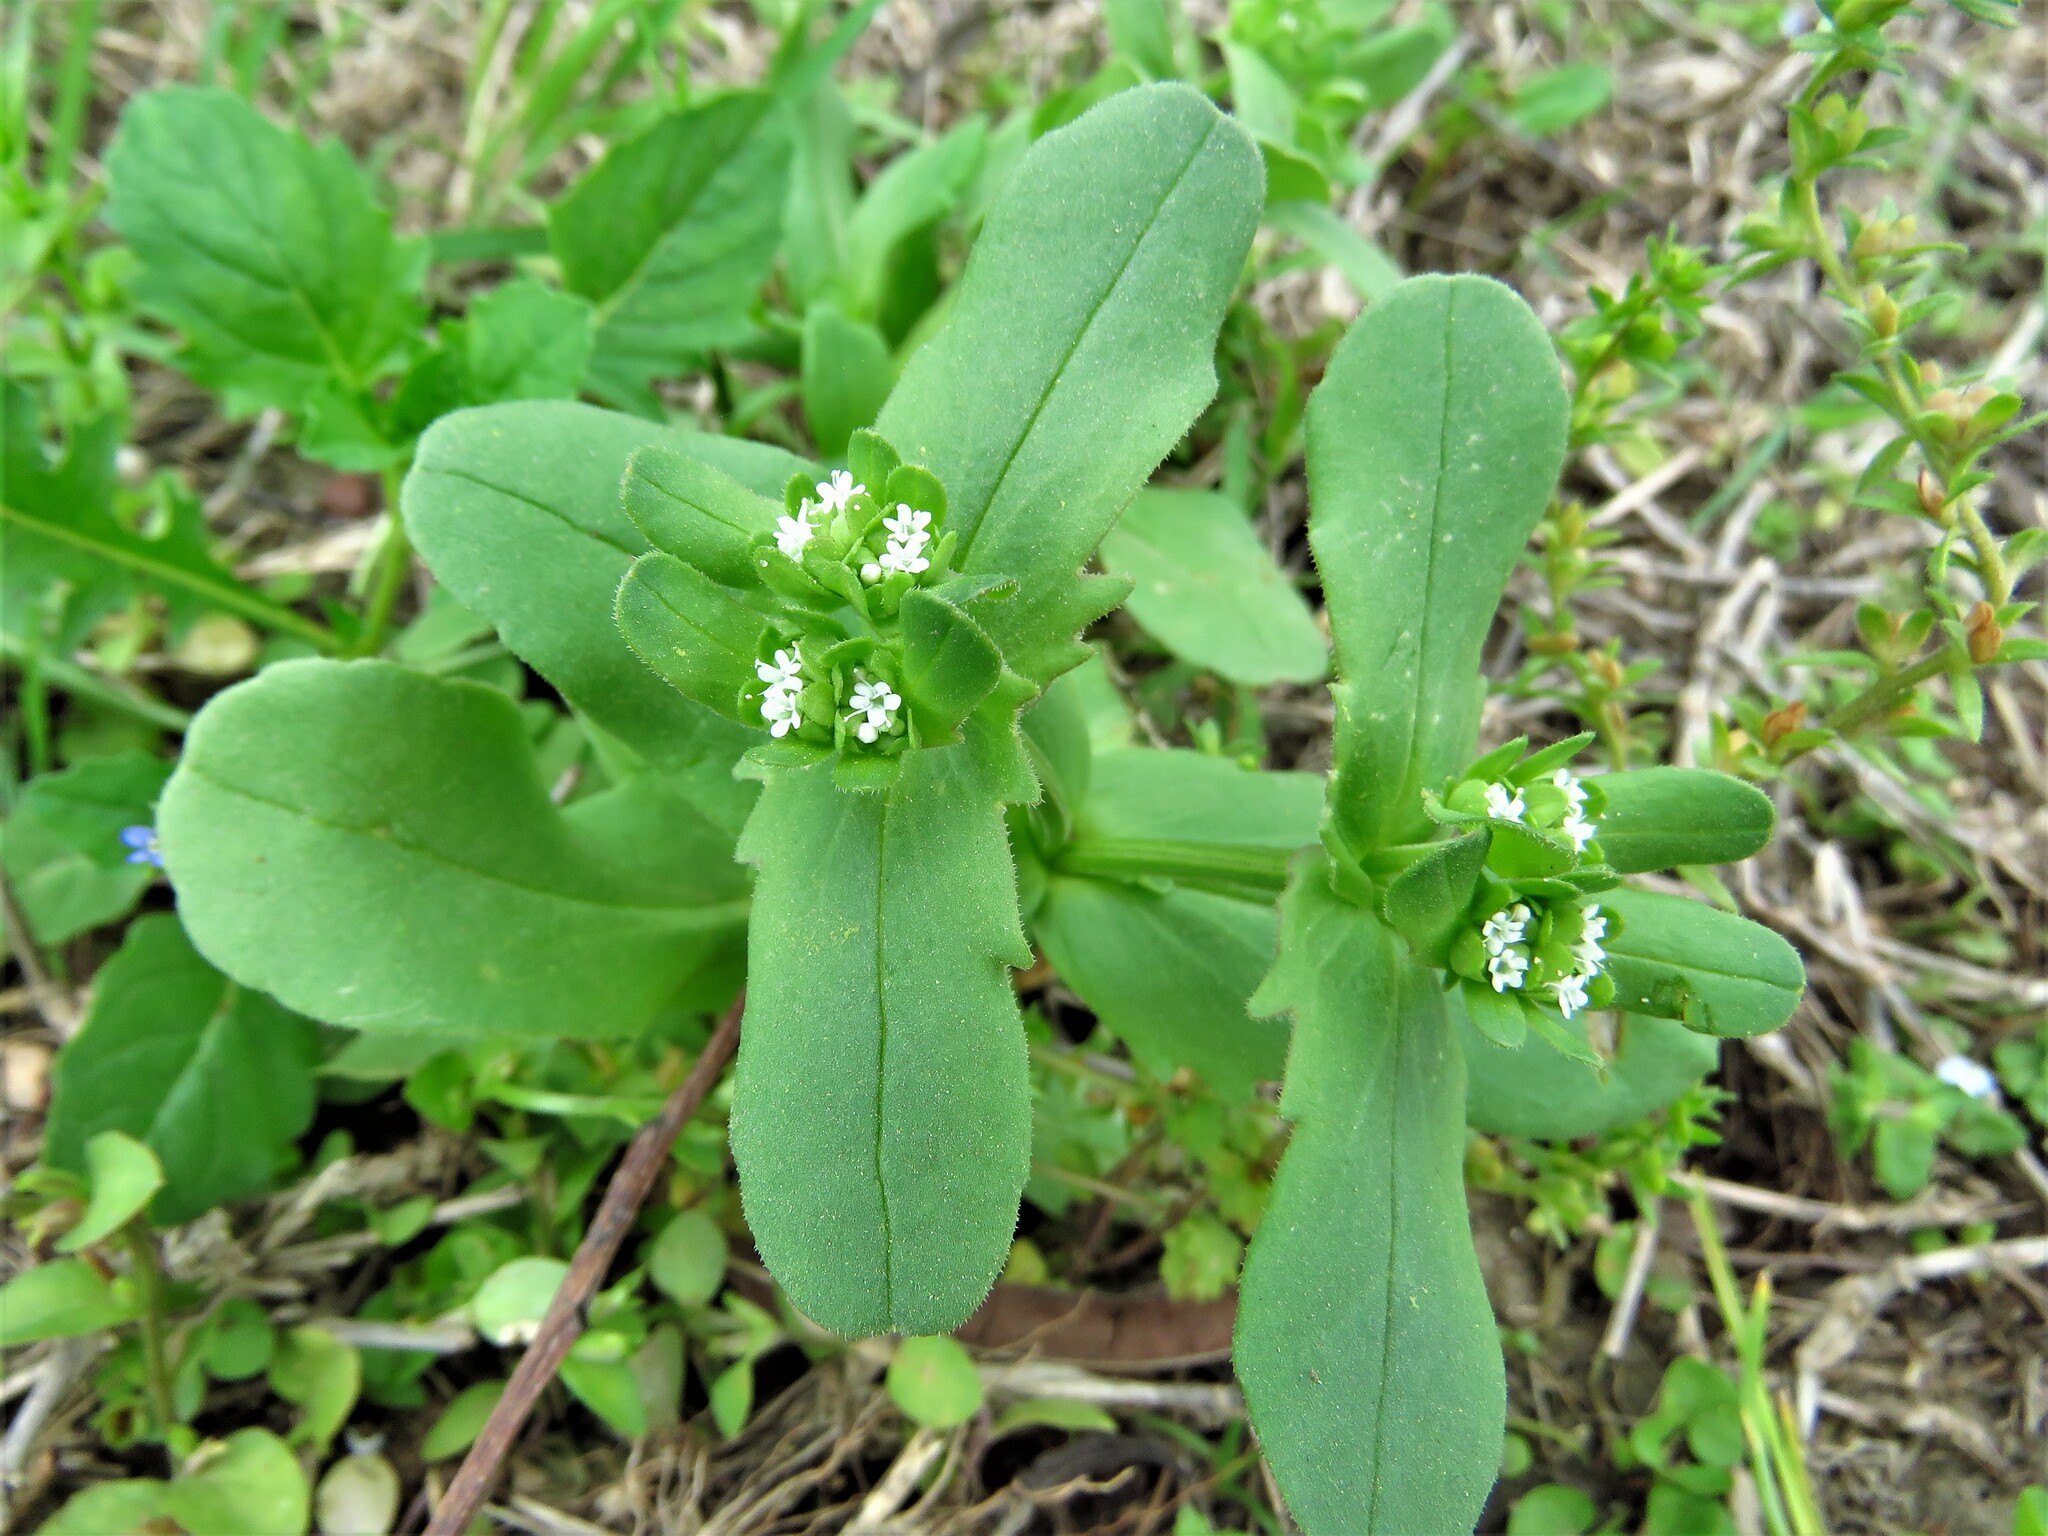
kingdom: Plantae
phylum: Tracheophyta
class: Magnoliopsida
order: Dipsacales
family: Caprifoliaceae
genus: Valerianella
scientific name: Valerianella radiata
